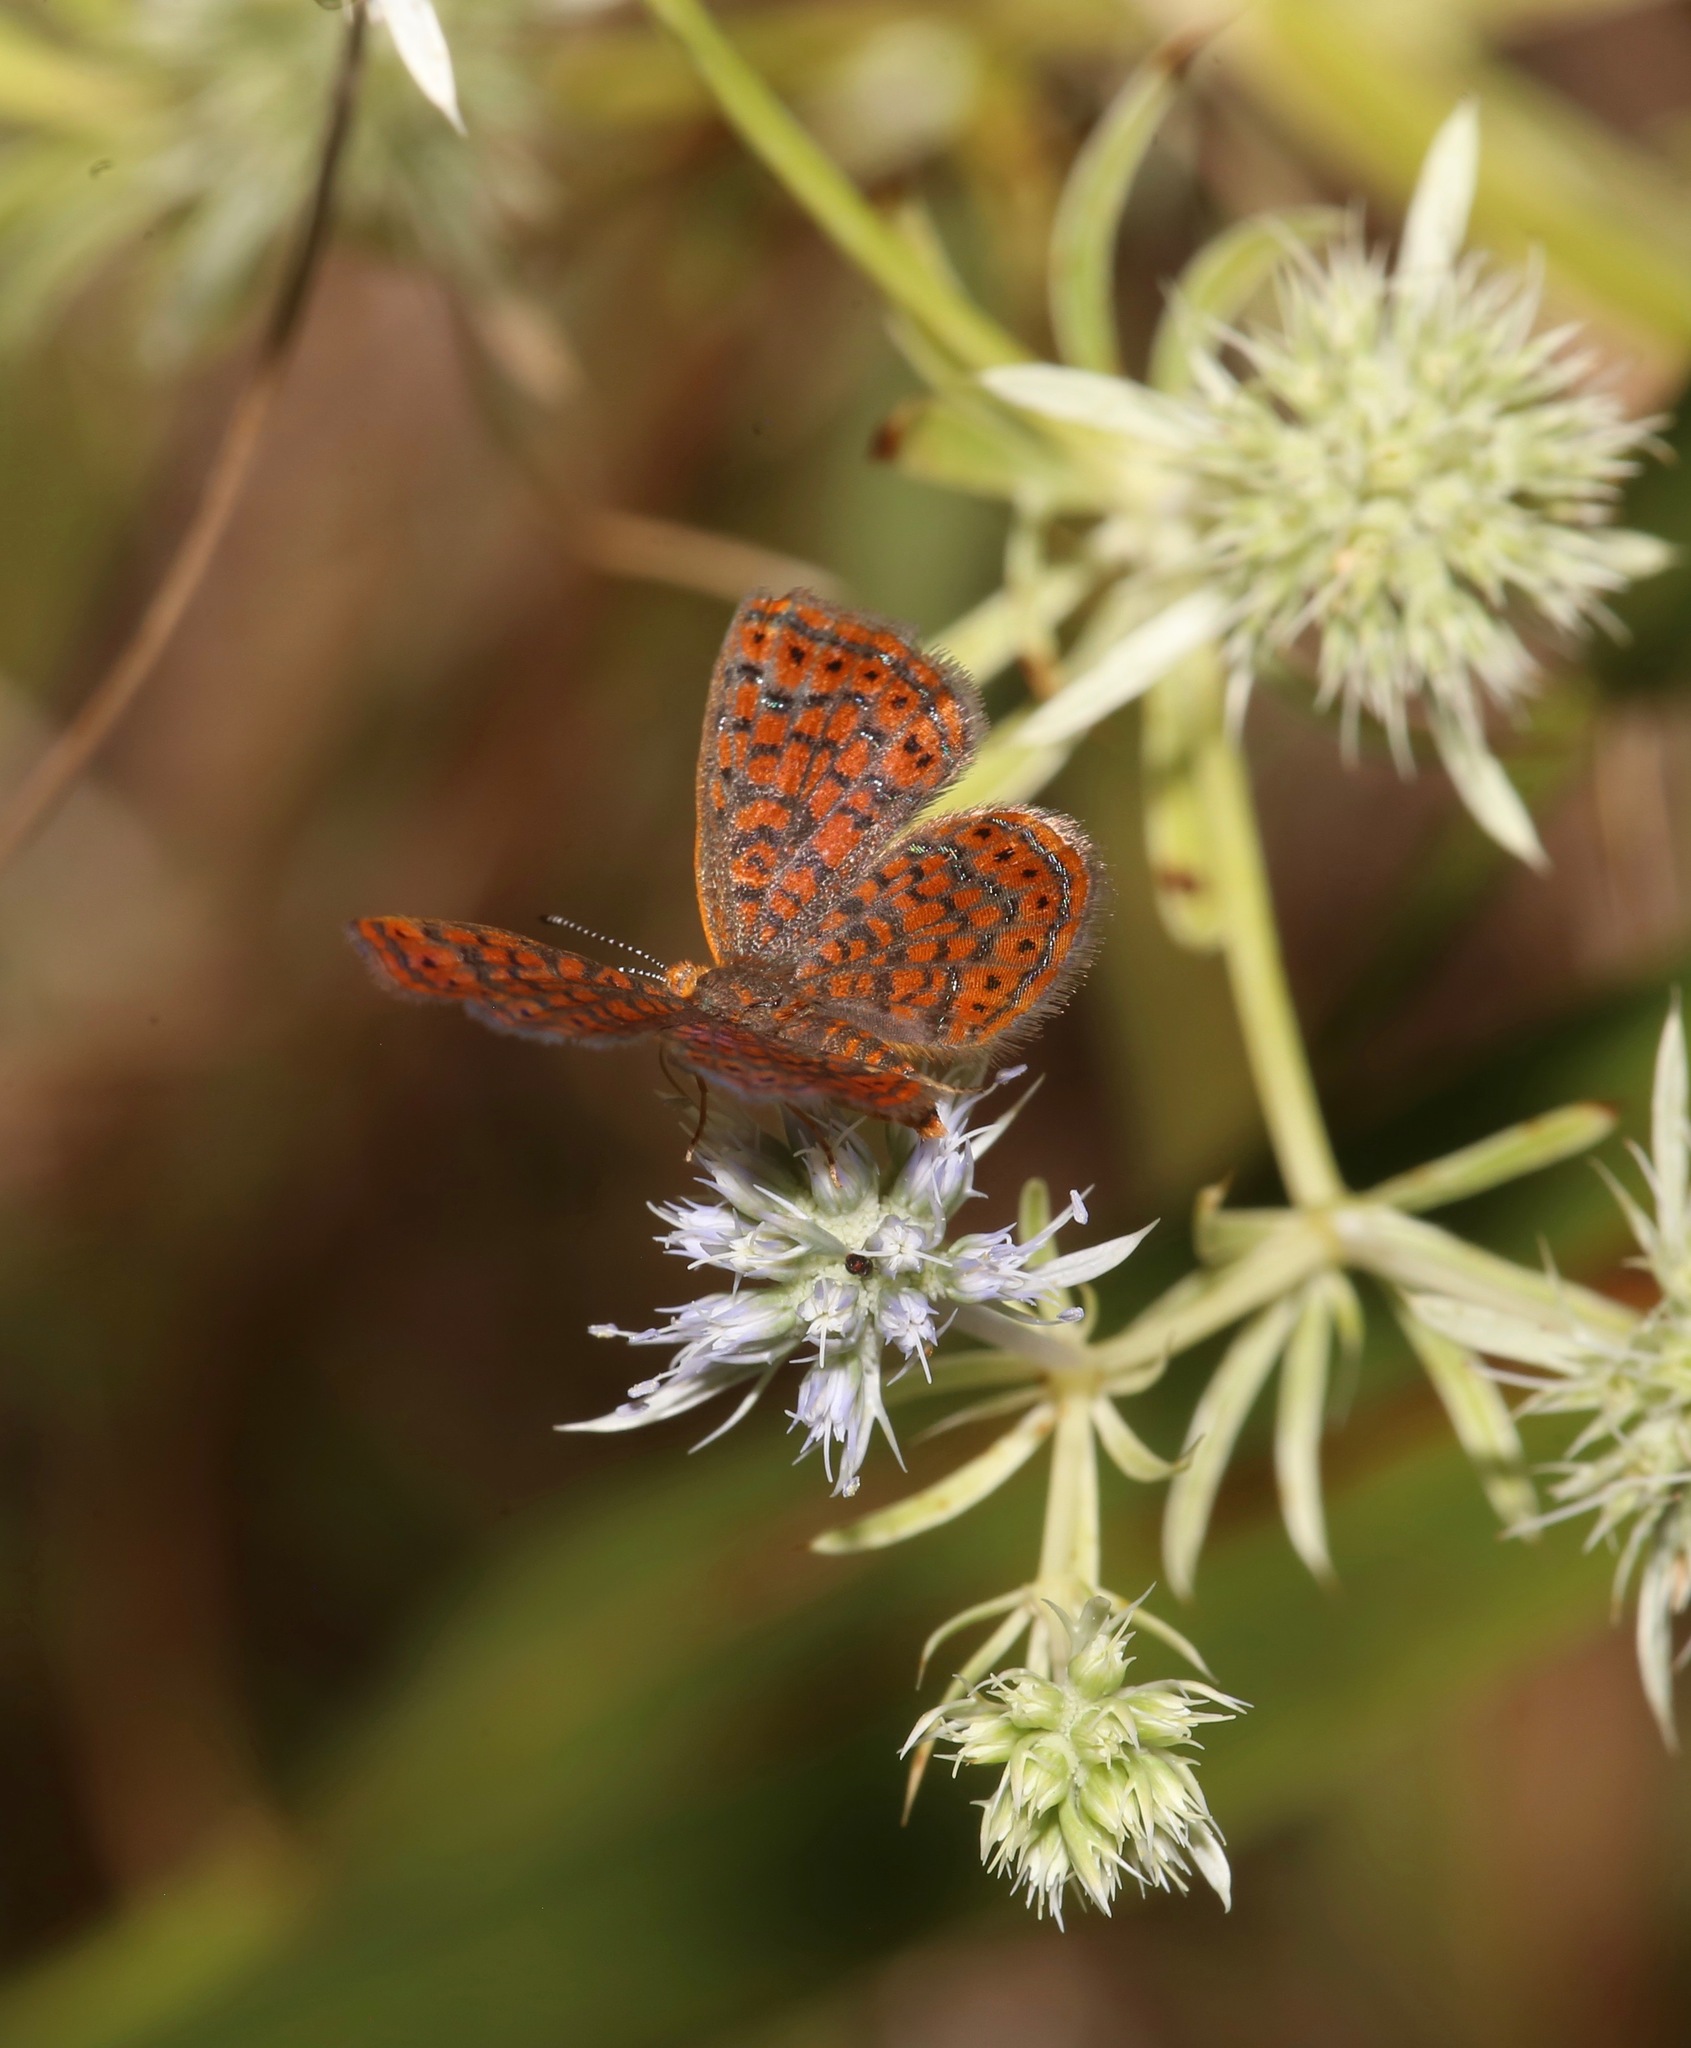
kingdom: Animalia
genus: Calephelis
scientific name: Calephelis virginiensis
